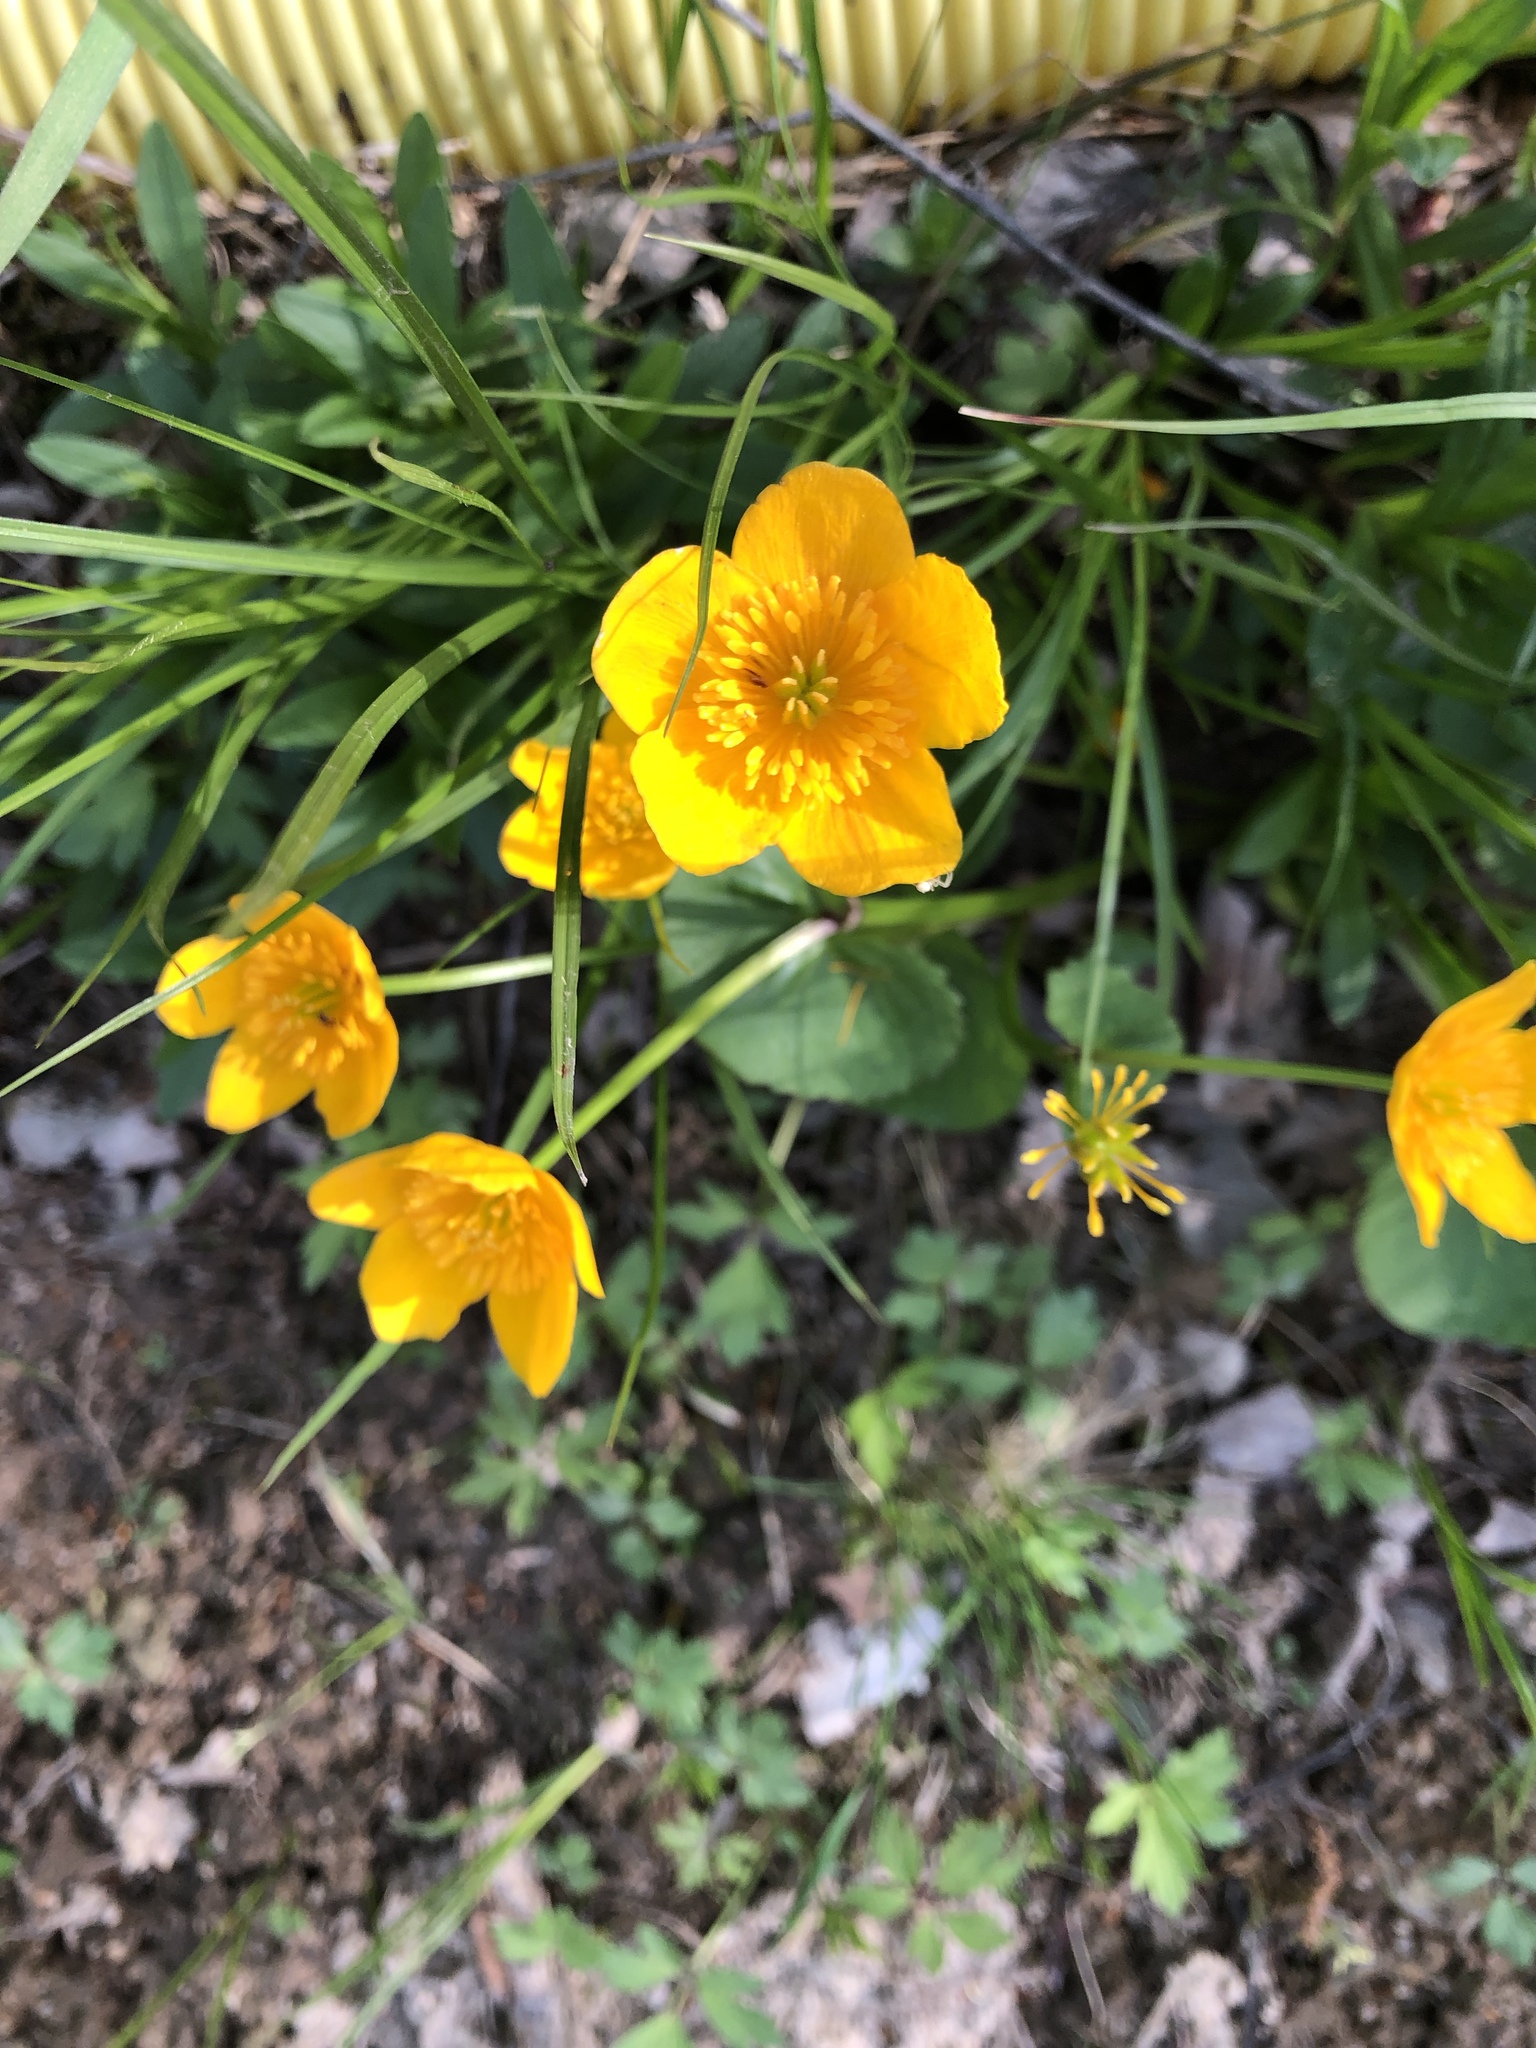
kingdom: Plantae
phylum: Tracheophyta
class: Magnoliopsida
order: Ranunculales
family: Ranunculaceae
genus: Caltha
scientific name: Caltha palustris
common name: Marsh marigold
